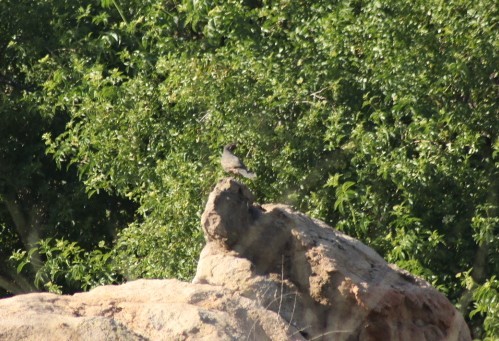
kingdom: Animalia
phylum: Chordata
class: Aves
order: Galliformes
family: Odontophoridae
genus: Callipepla
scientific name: Callipepla californica
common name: California quail
